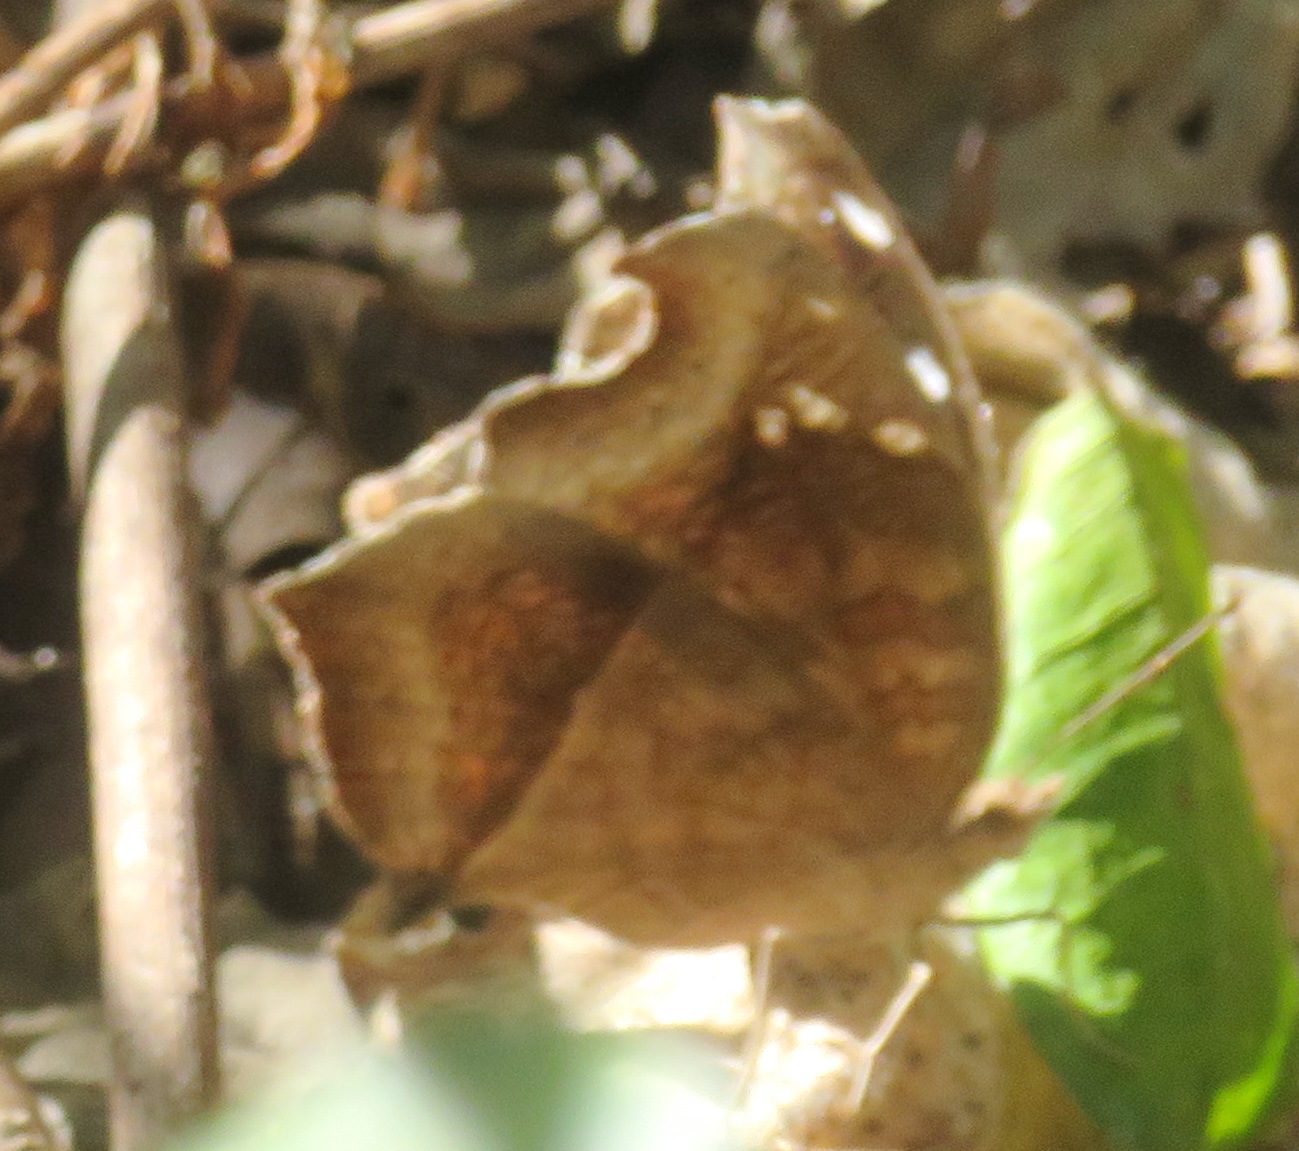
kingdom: Animalia
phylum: Arthropoda
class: Insecta
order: Lepidoptera
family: Nymphalidae
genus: Junonia
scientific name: Junonia natalica
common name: Brown pansy
